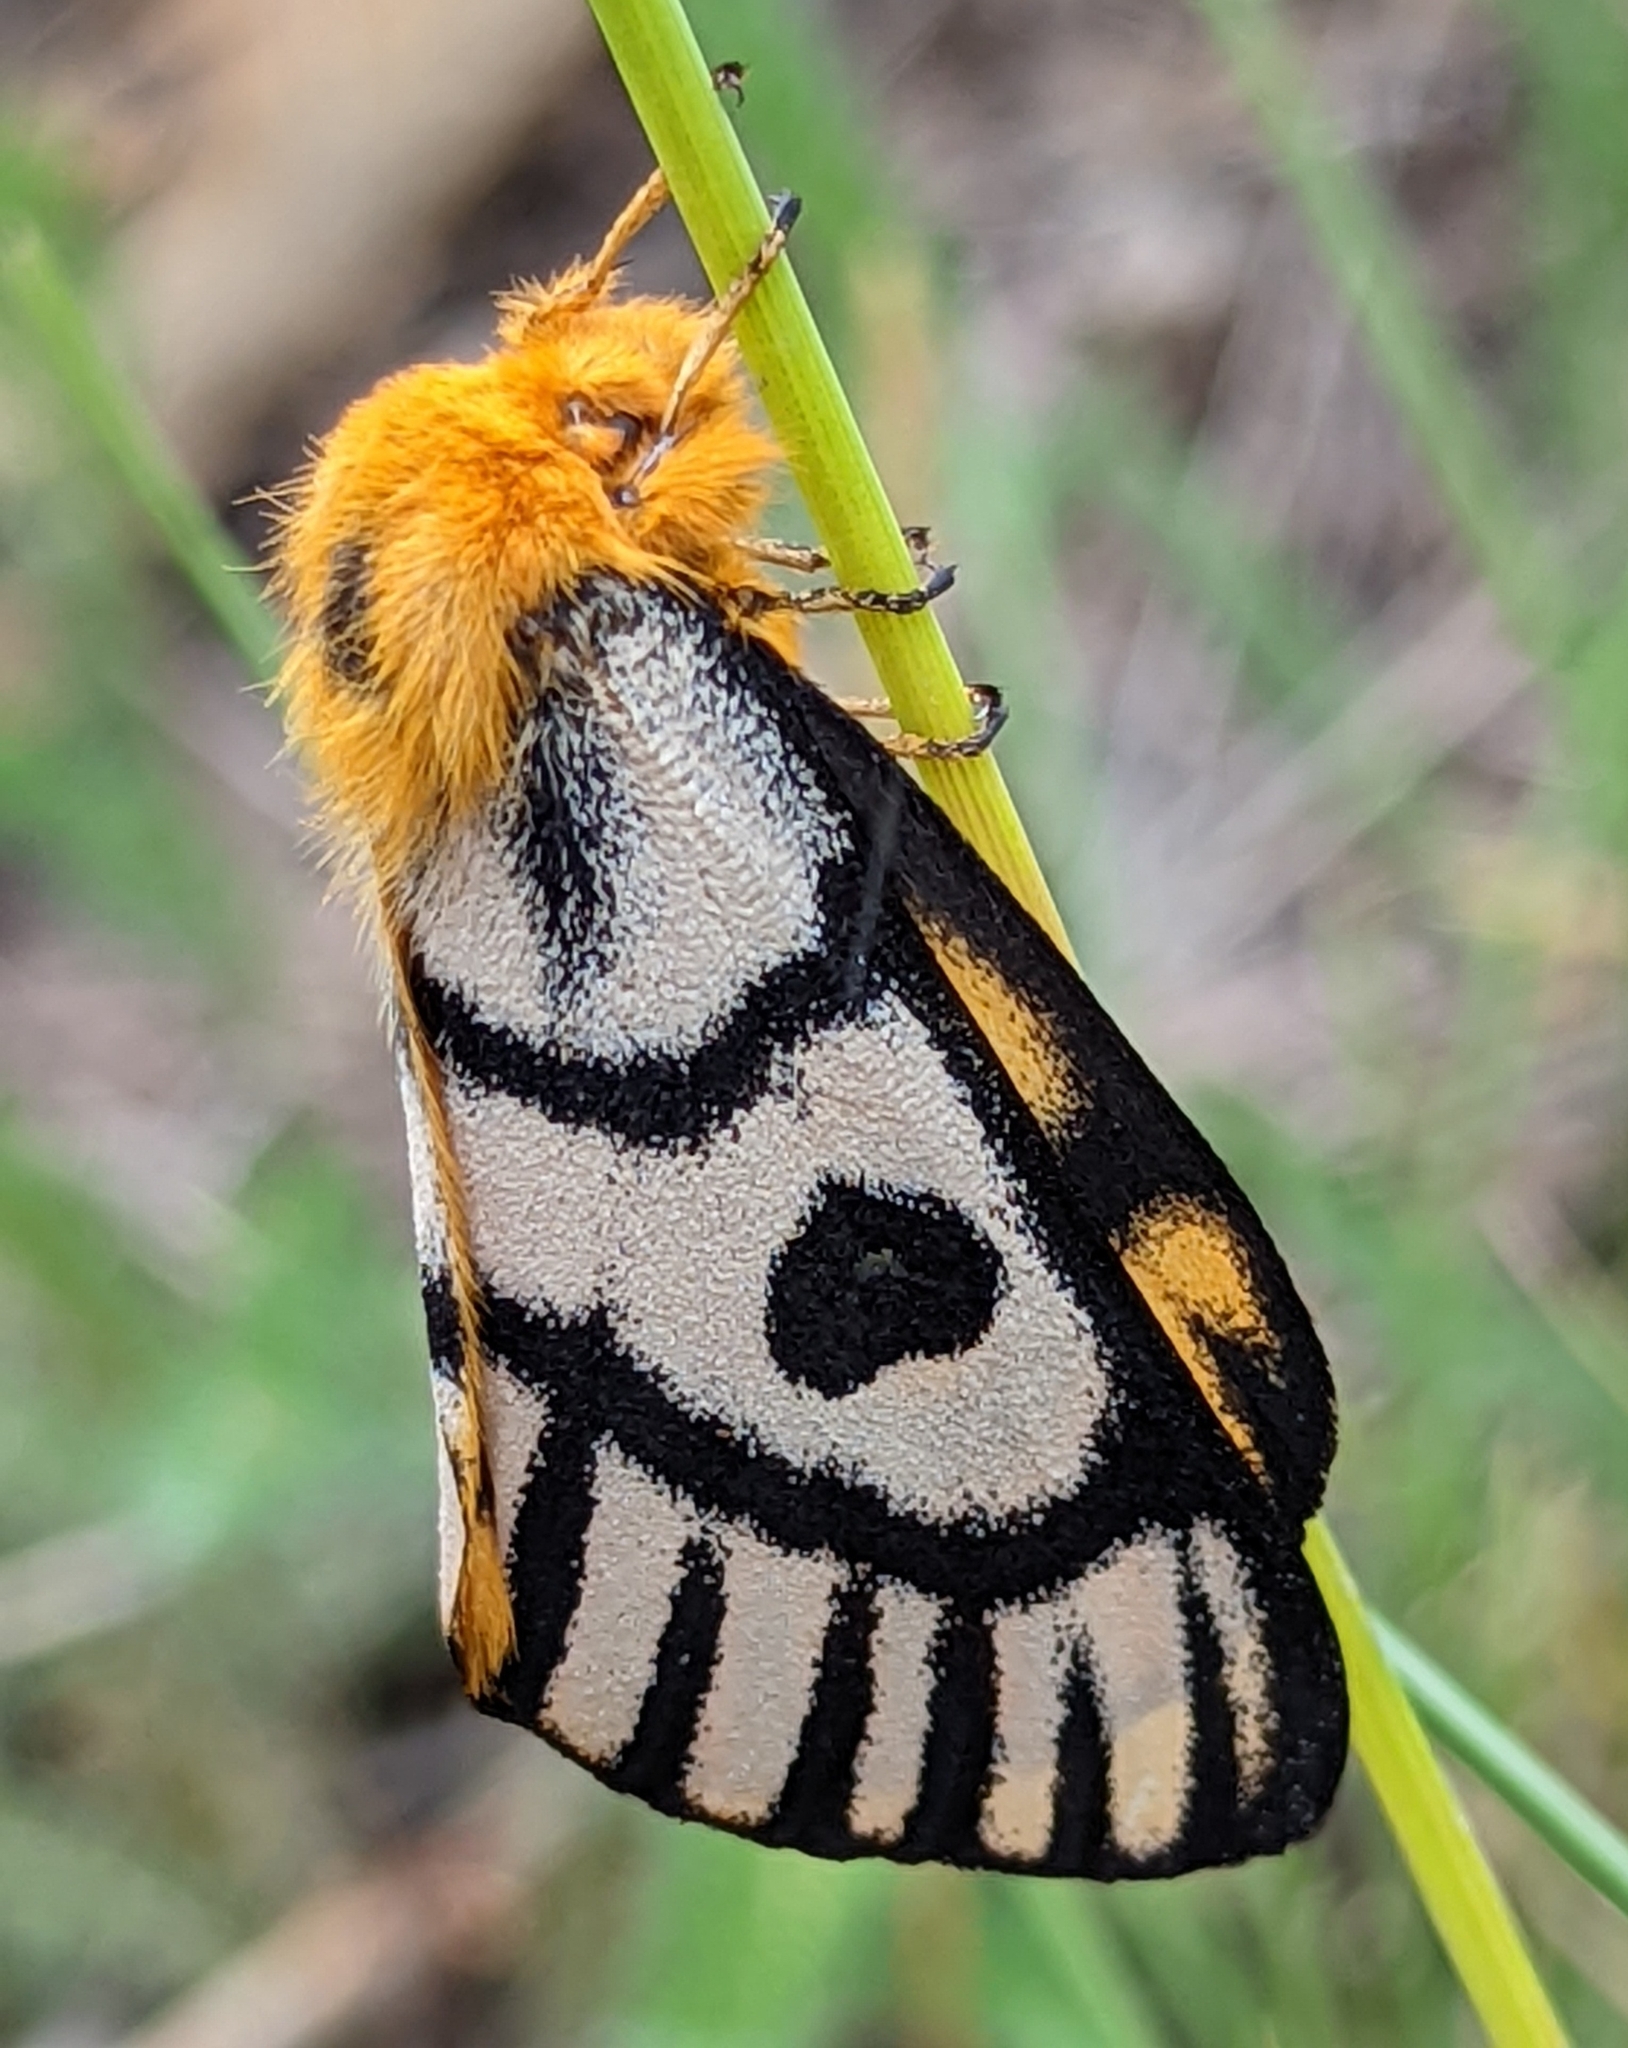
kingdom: Animalia
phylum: Arthropoda
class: Insecta
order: Lepidoptera
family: Saturniidae
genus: Hemileuca
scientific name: Hemileuca nutalli
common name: Nuttall's sheepmoth
